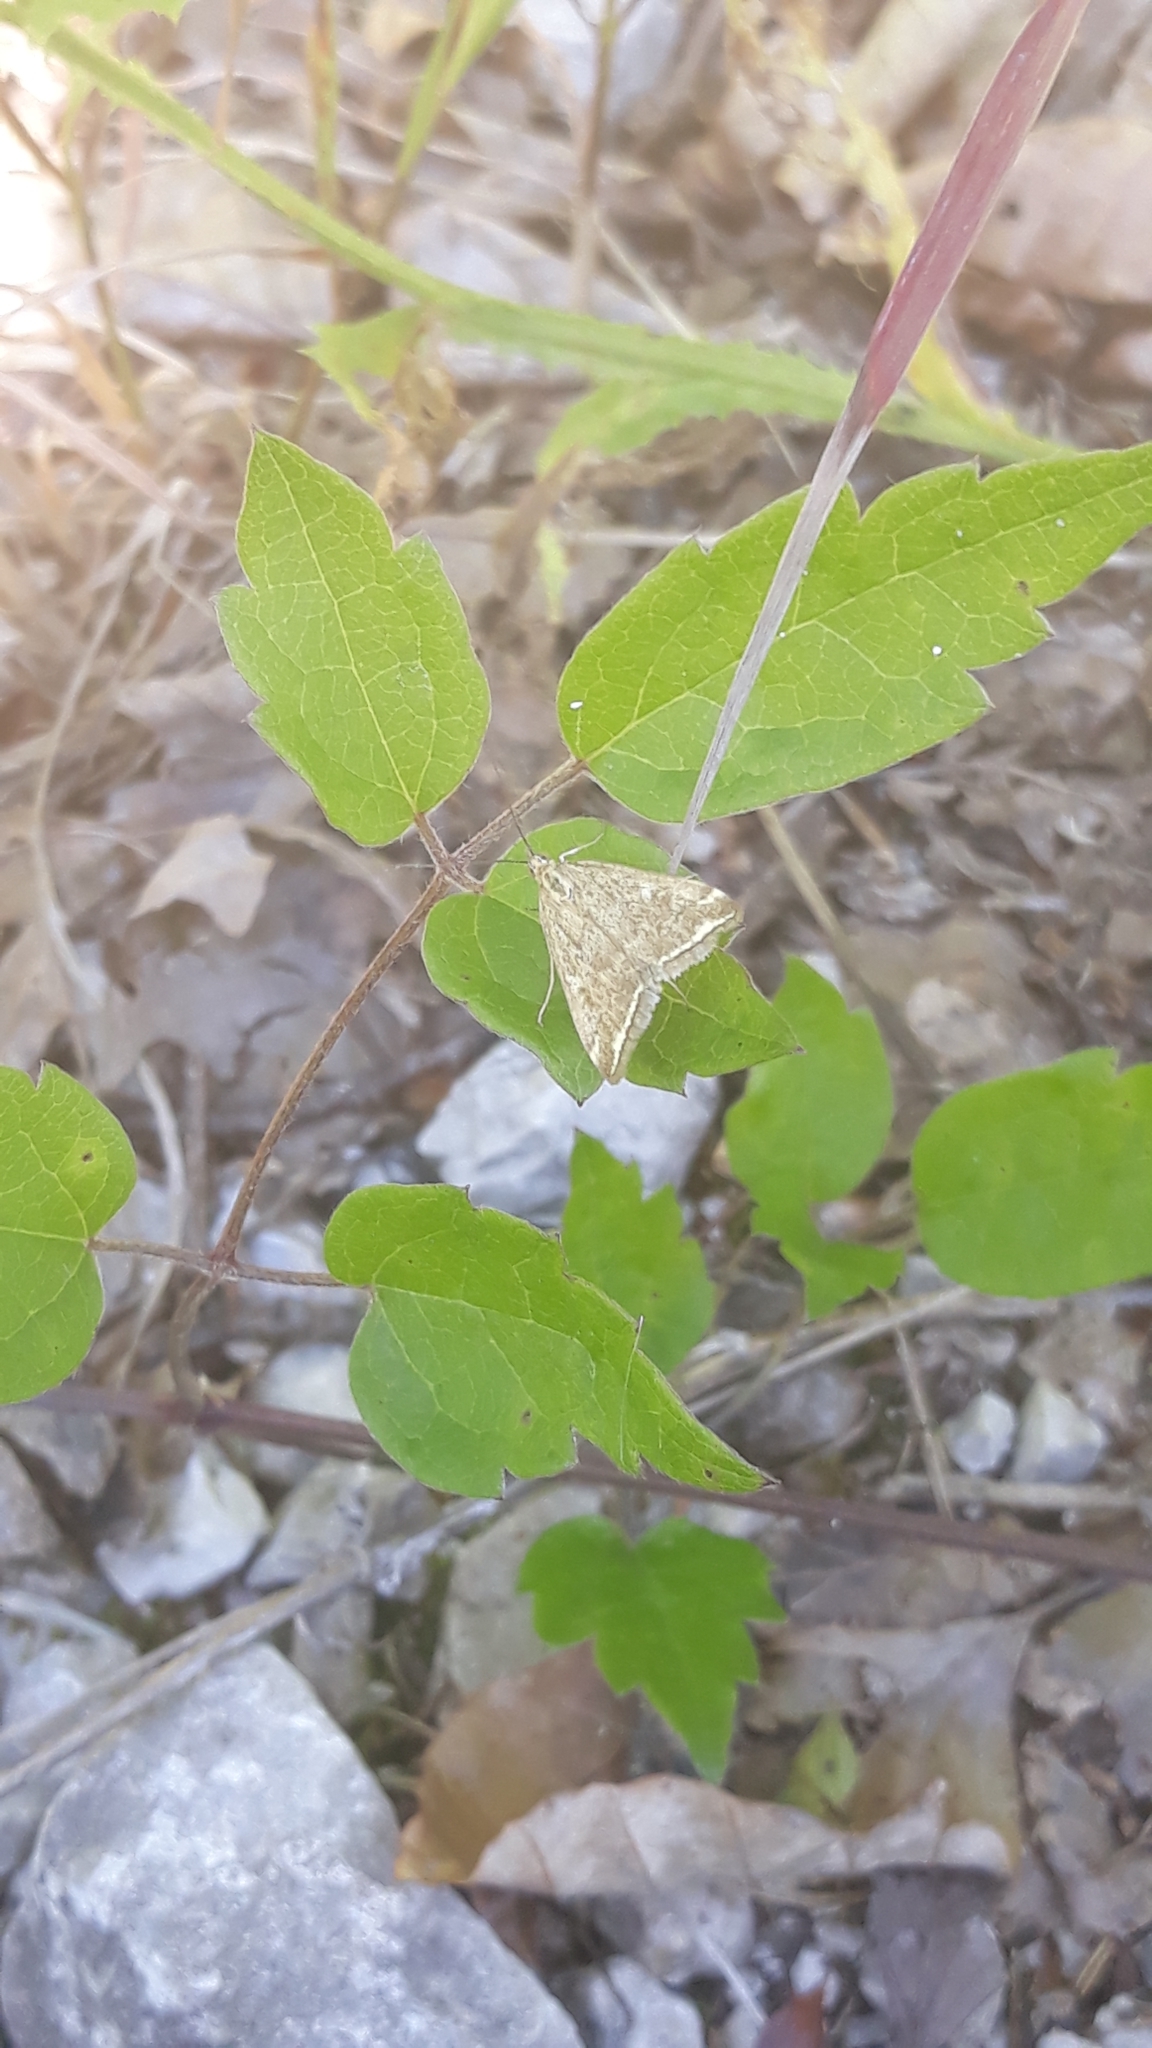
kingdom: Animalia
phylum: Arthropoda
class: Insecta
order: Lepidoptera
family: Crambidae
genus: Loxostege
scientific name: Loxostege sticticalis
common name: Crambid moth
